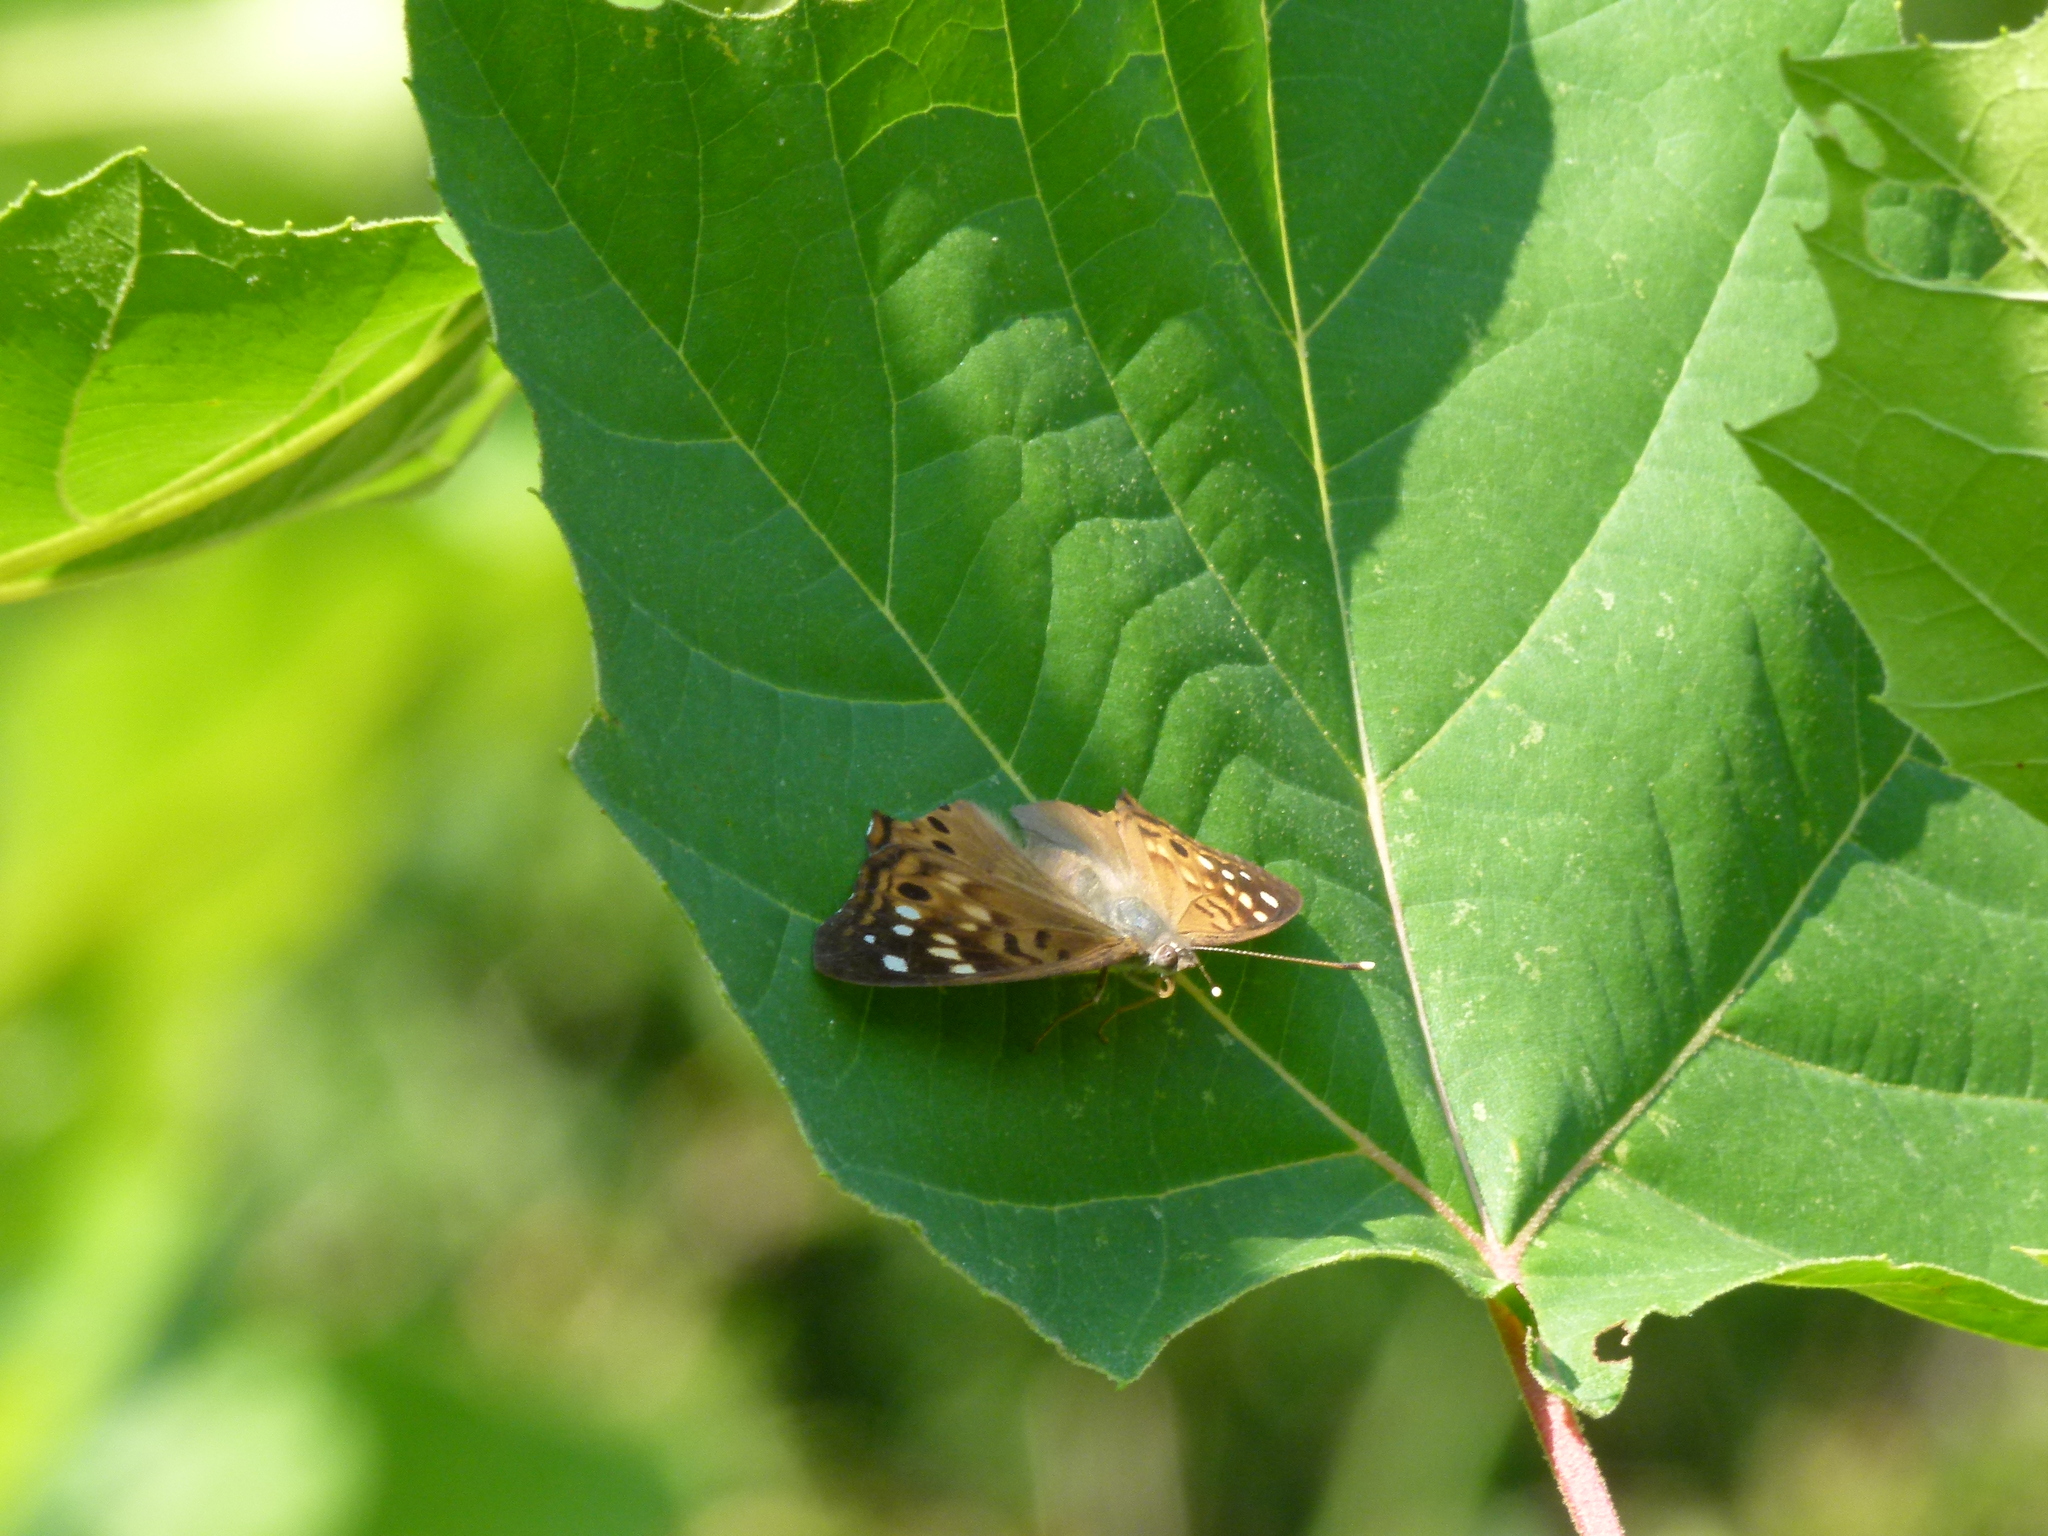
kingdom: Animalia
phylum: Arthropoda
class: Insecta
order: Lepidoptera
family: Nymphalidae
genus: Asterocampa
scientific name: Asterocampa celtis
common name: Hackberry emperor
